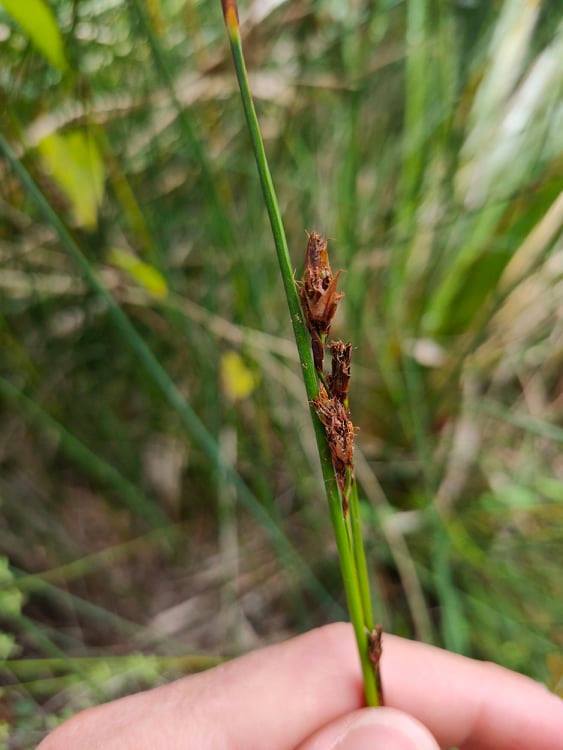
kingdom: Plantae
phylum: Tracheophyta
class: Liliopsida
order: Poales
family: Restionaceae
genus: Apodasmia
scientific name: Apodasmia similis
